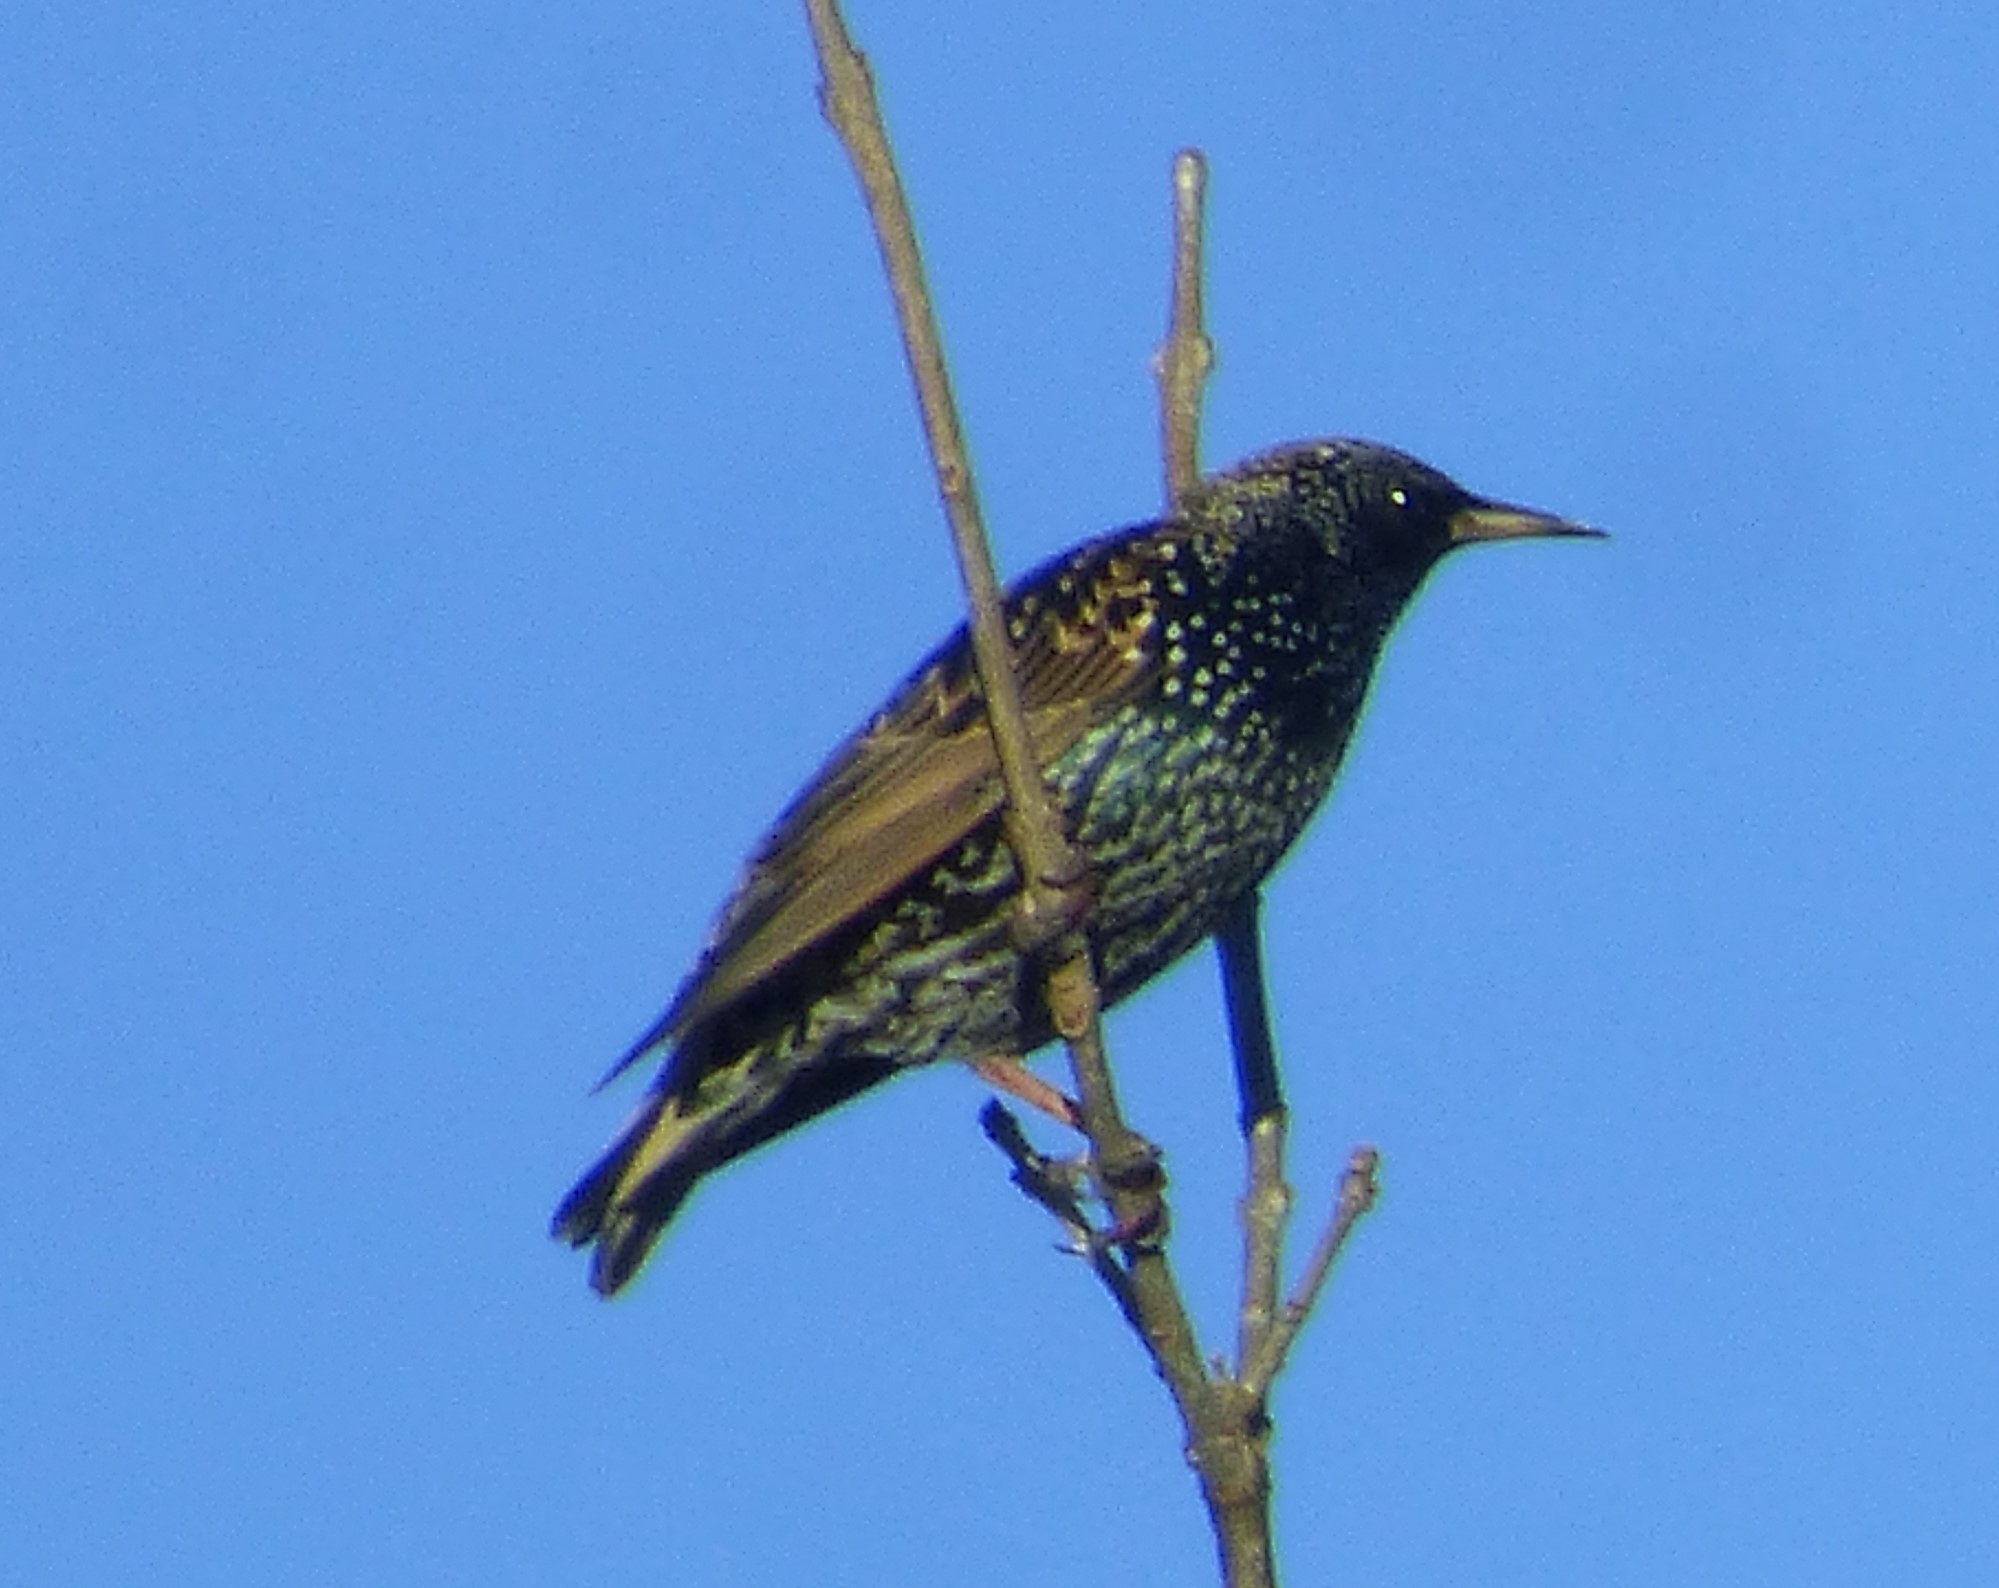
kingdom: Animalia
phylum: Chordata
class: Aves
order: Passeriformes
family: Sturnidae
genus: Sturnus
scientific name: Sturnus vulgaris
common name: Common starling
